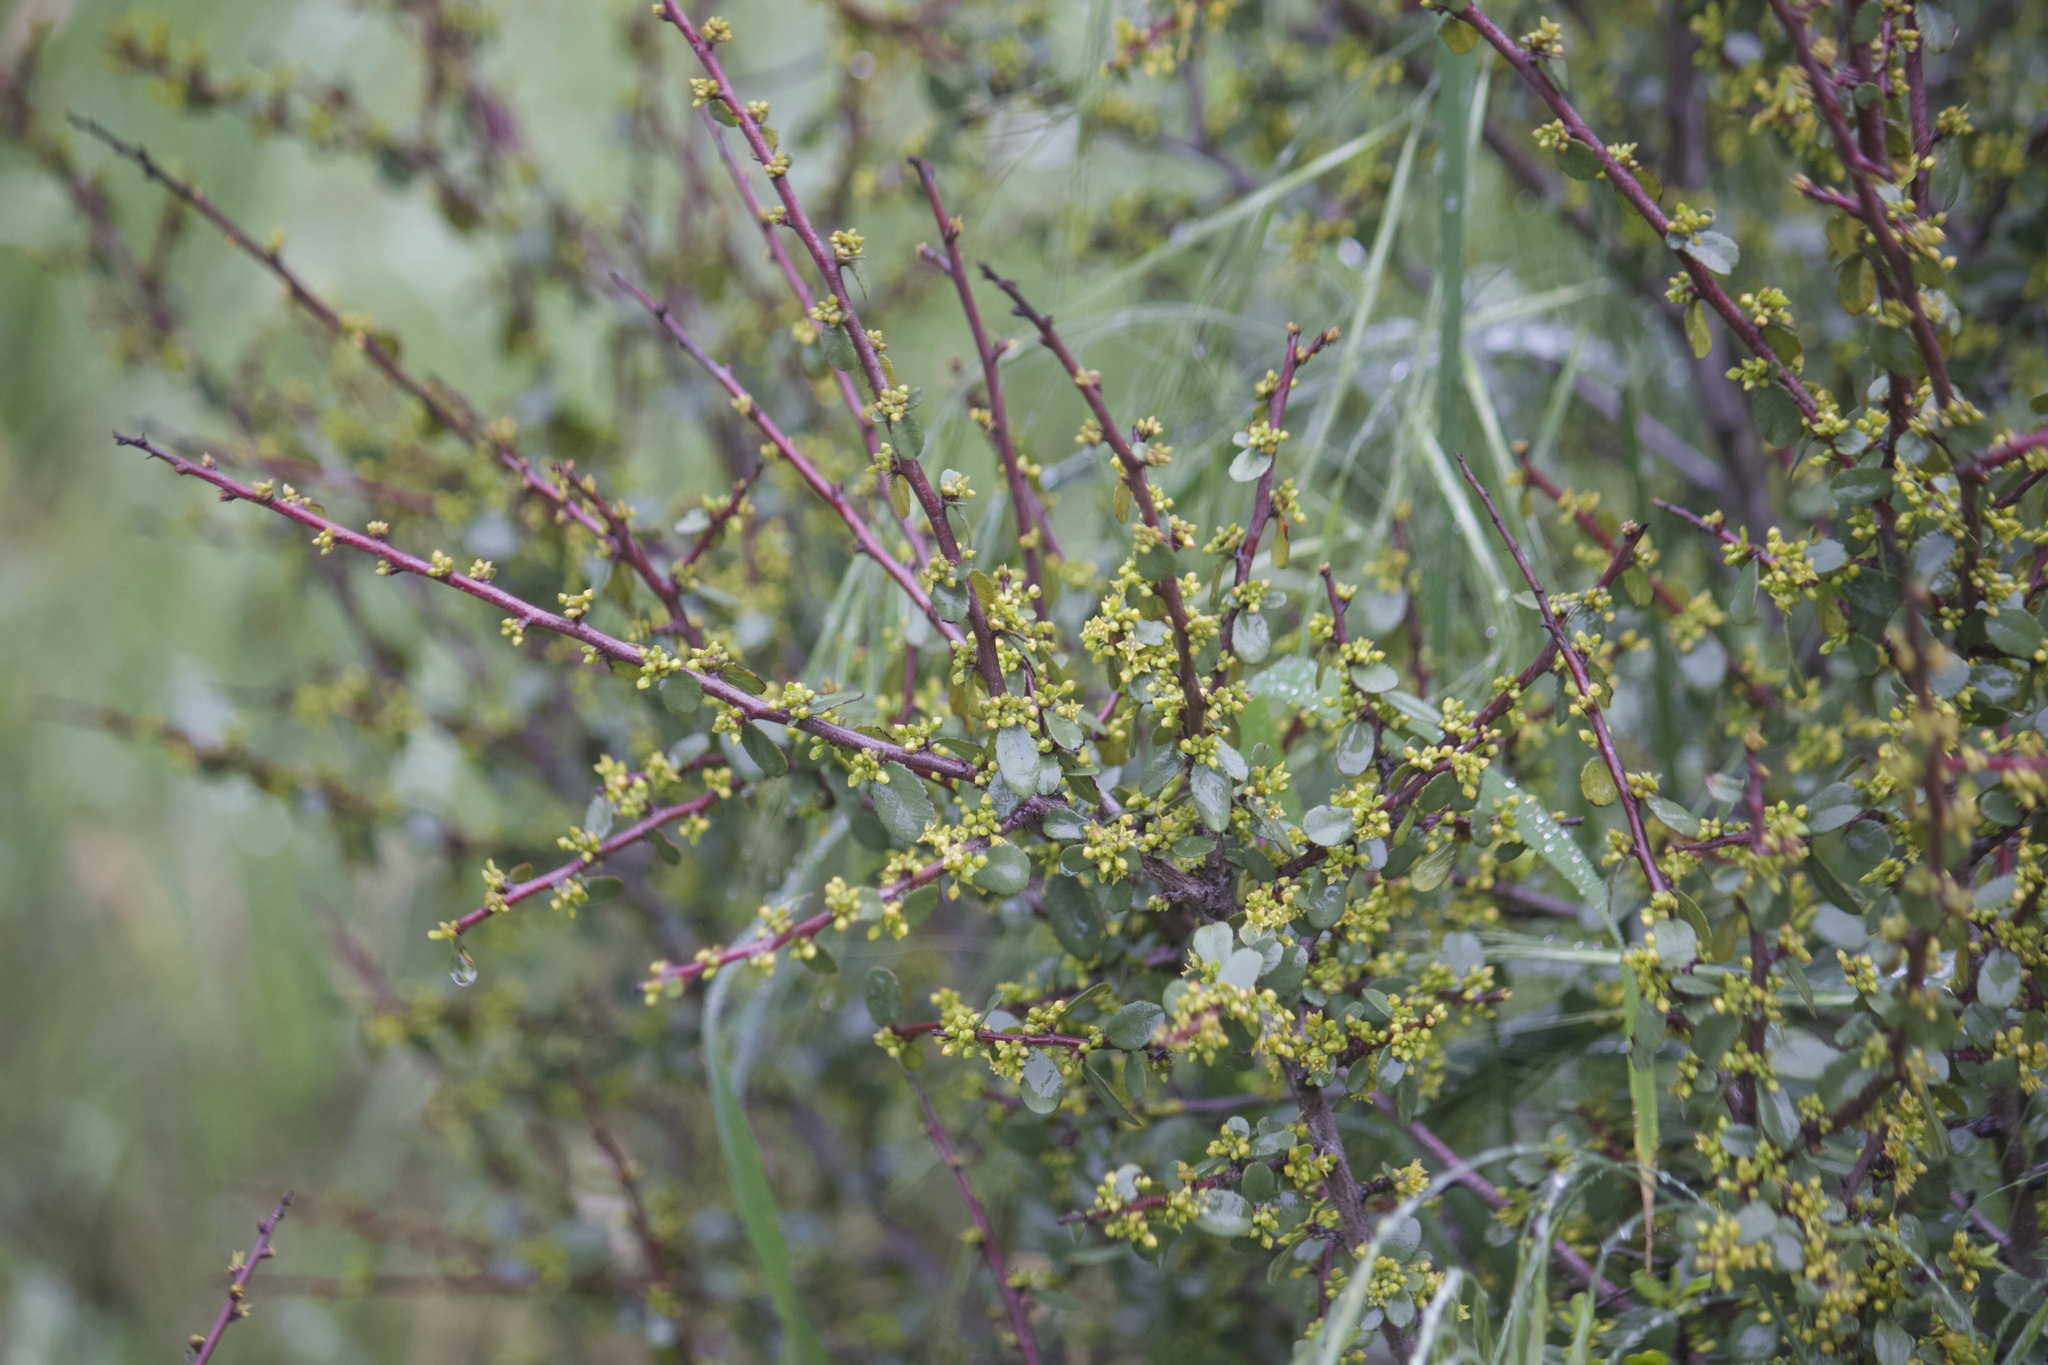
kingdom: Plantae
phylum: Tracheophyta
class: Magnoliopsida
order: Rosales
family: Rhamnaceae
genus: Endotropis
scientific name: Endotropis crocea
